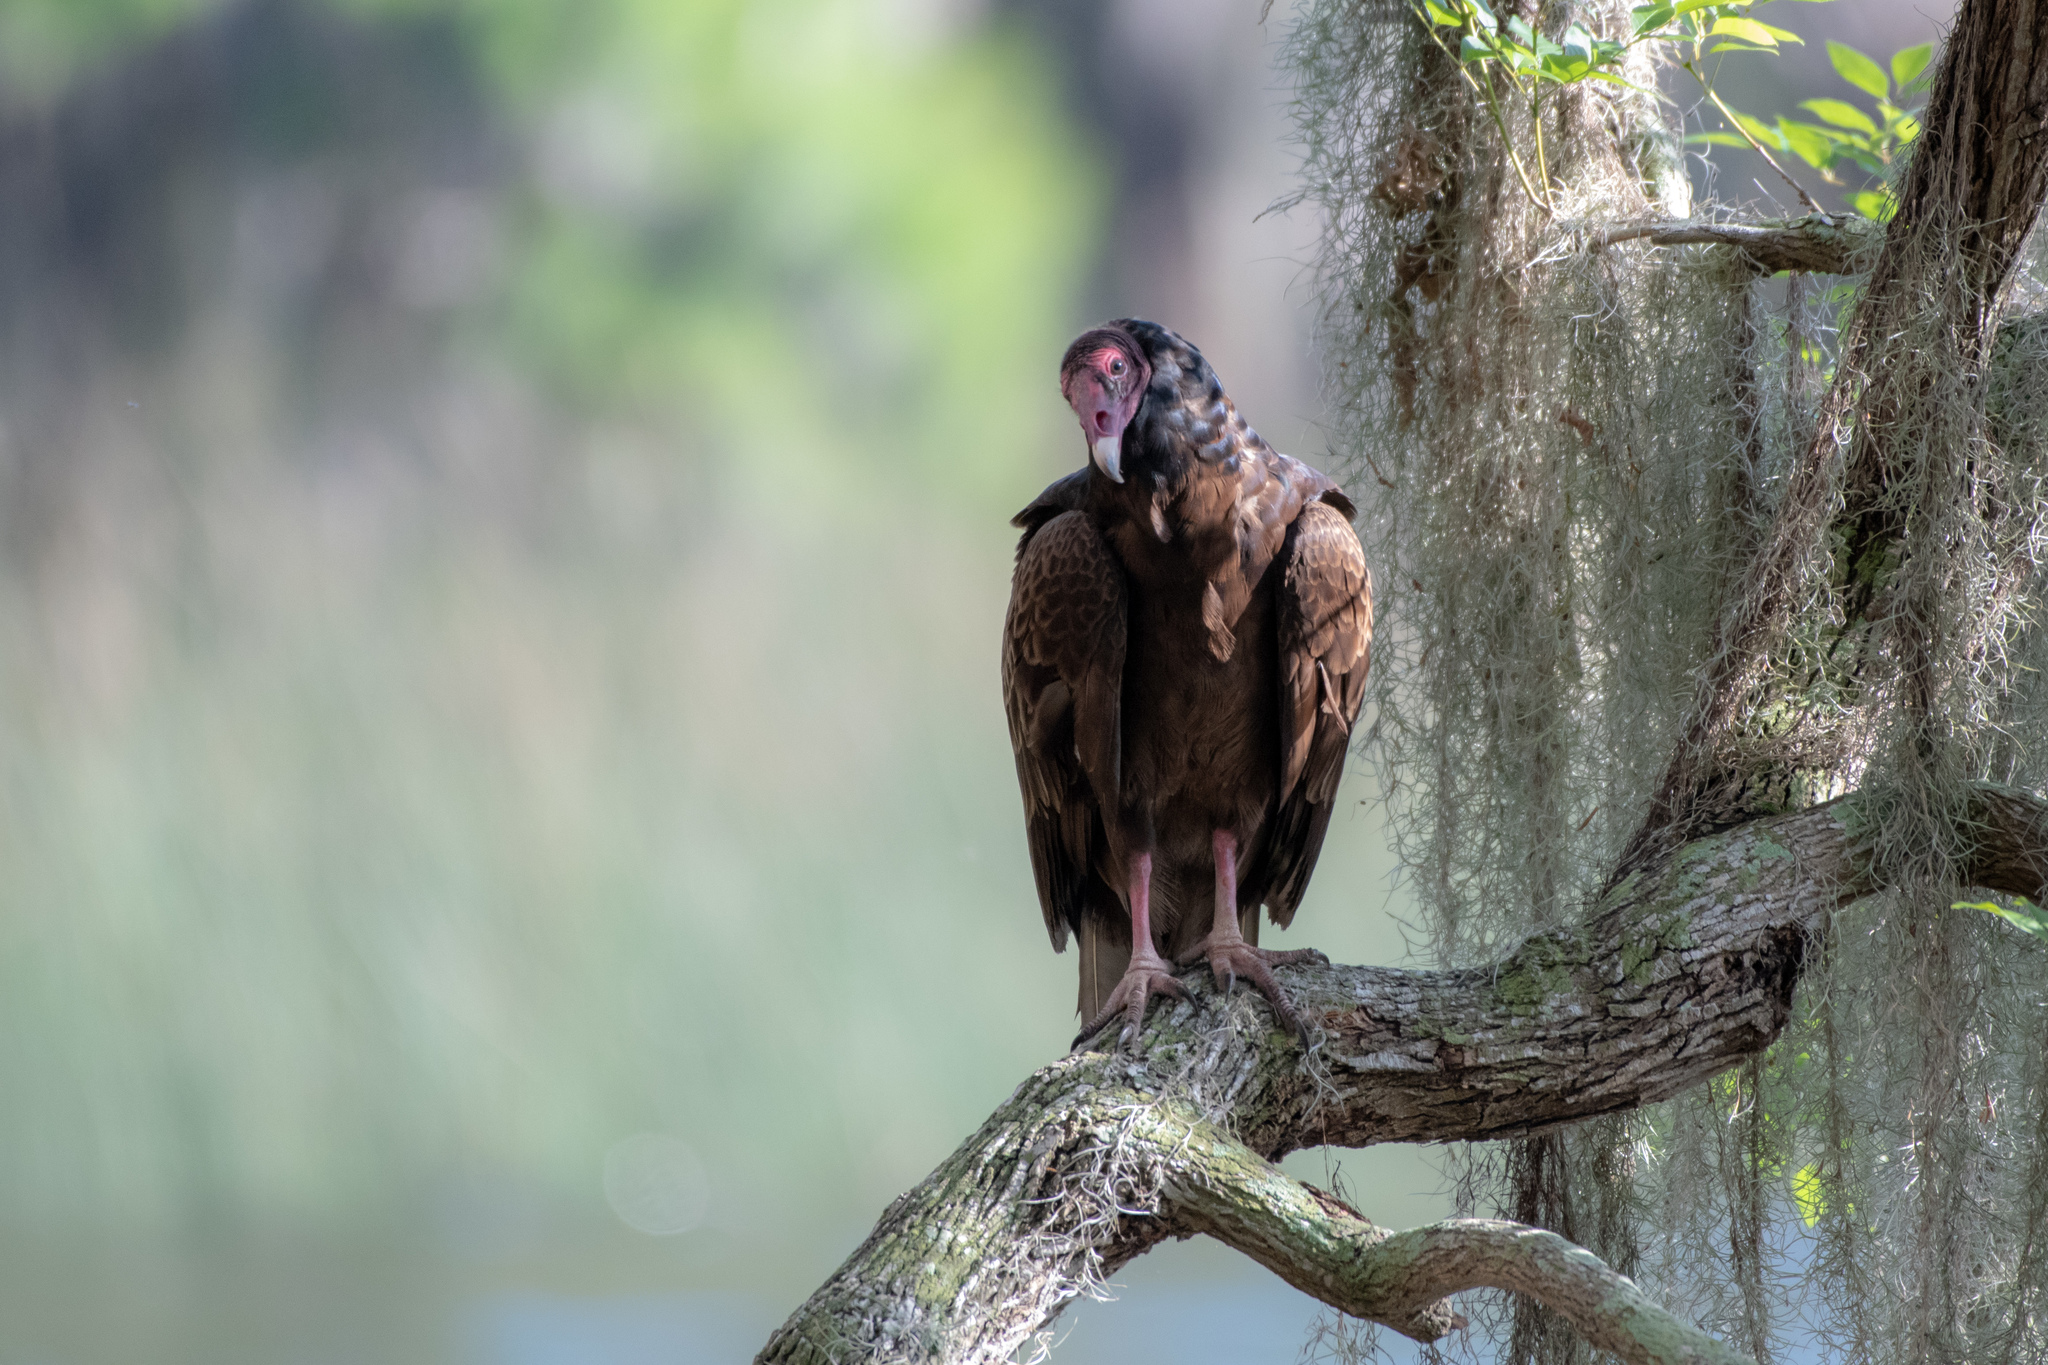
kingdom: Animalia
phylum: Chordata
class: Aves
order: Accipitriformes
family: Cathartidae
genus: Cathartes
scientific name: Cathartes aura
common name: Turkey vulture
